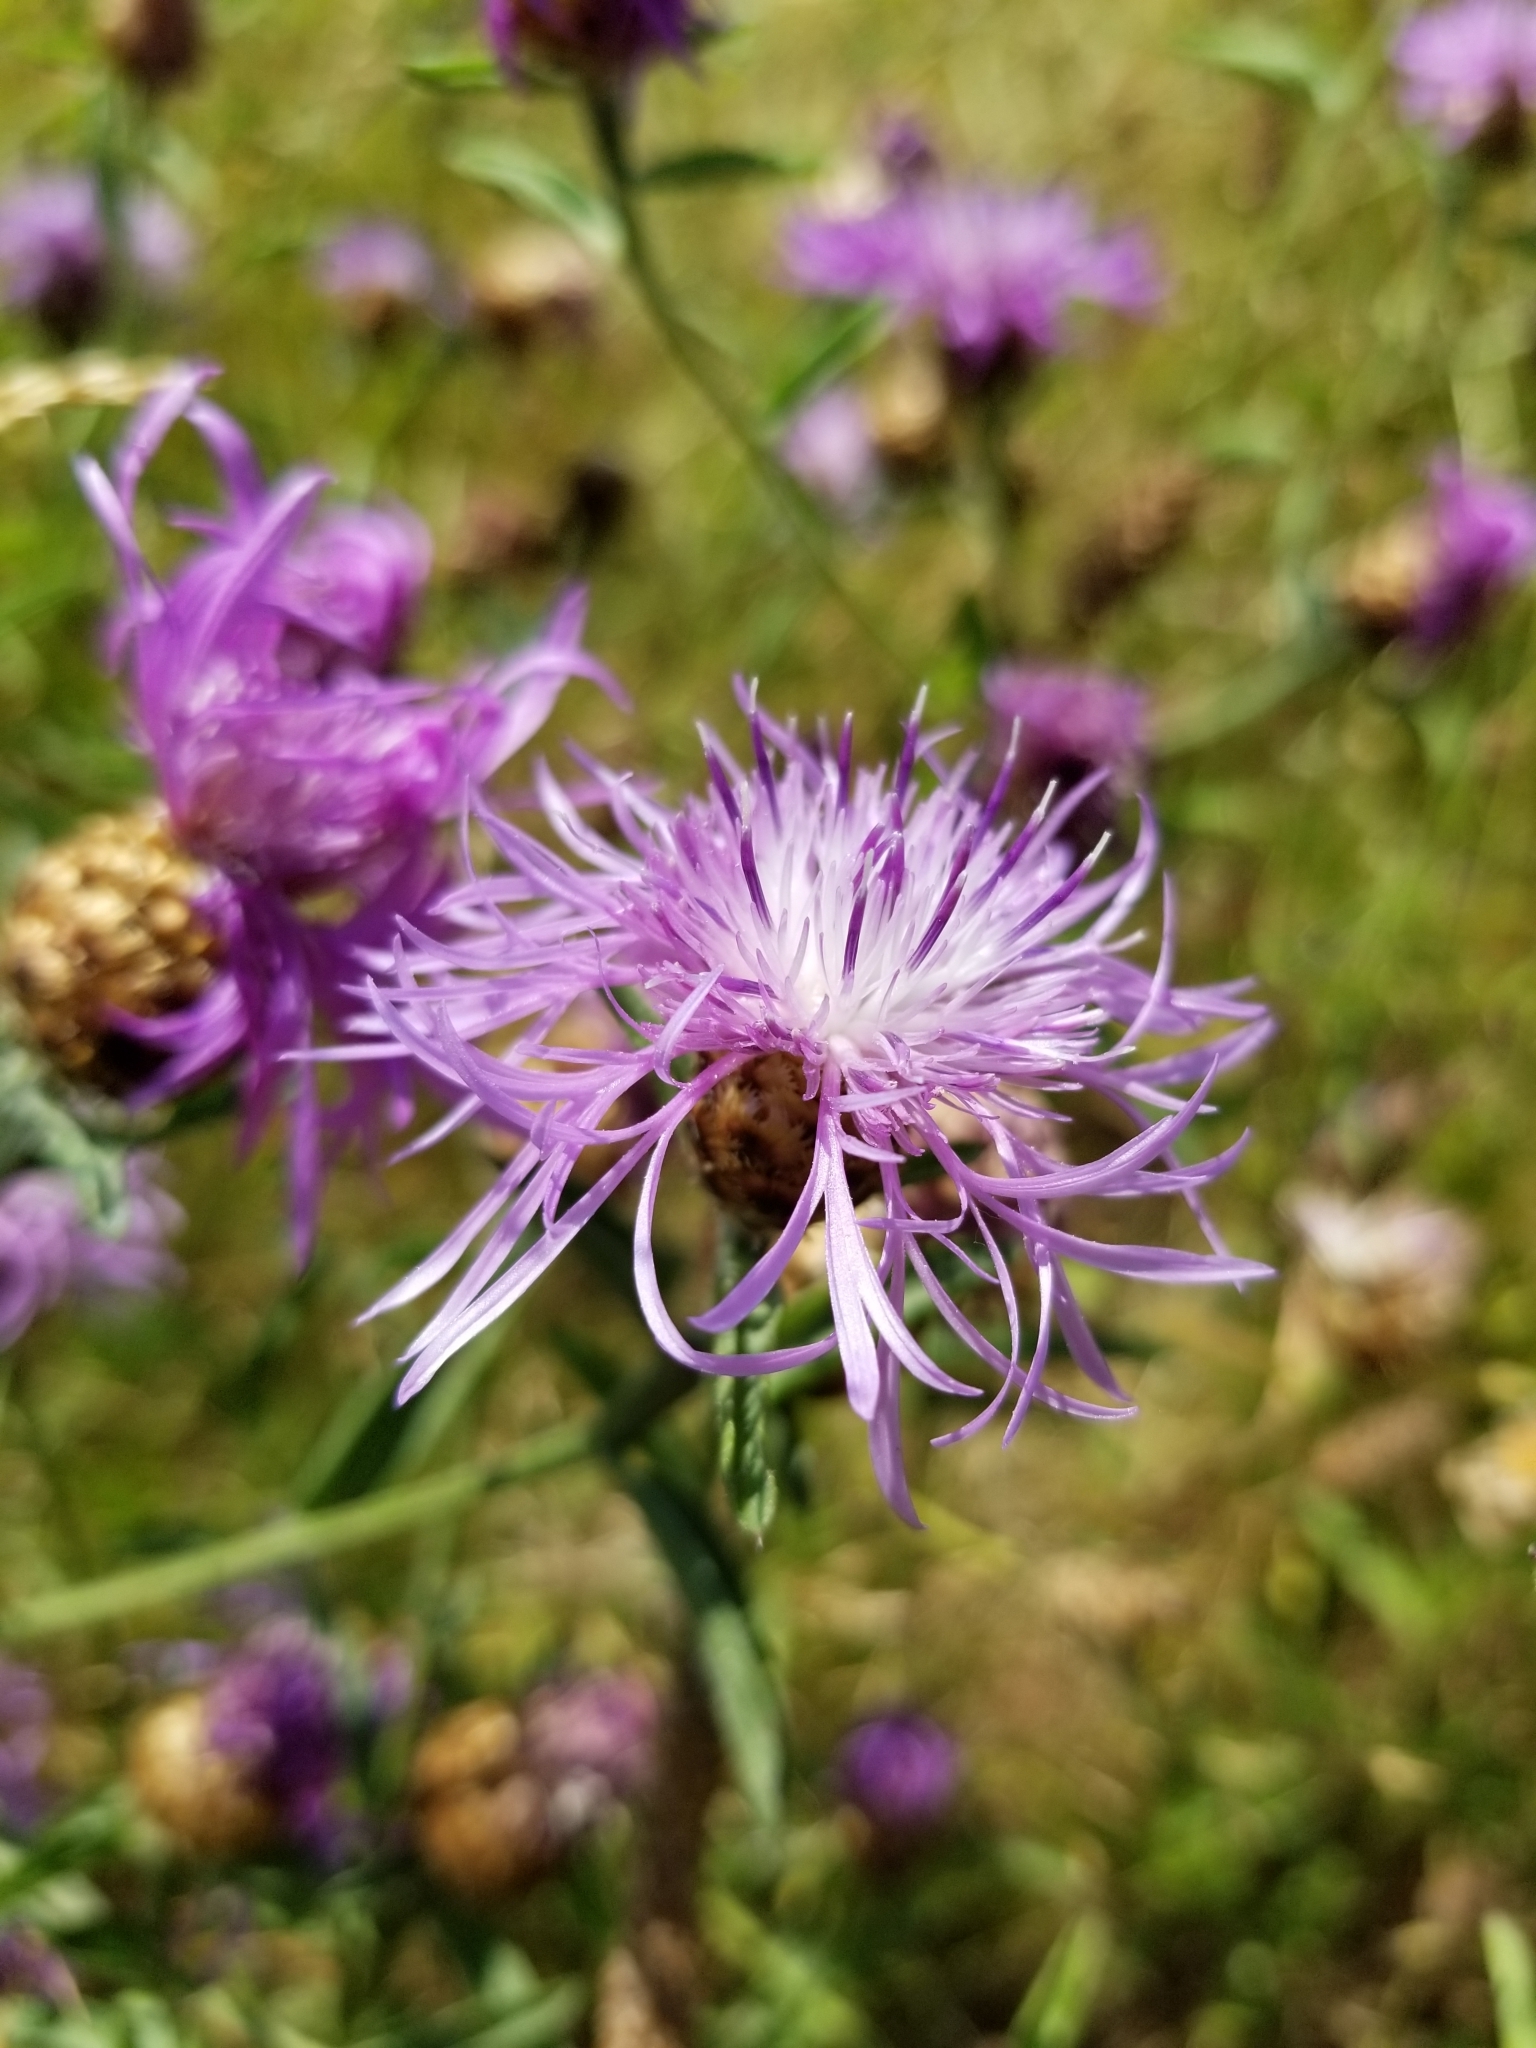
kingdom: Plantae
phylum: Tracheophyta
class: Magnoliopsida
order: Asterales
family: Asteraceae
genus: Centaurea
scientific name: Centaurea moncktonii
